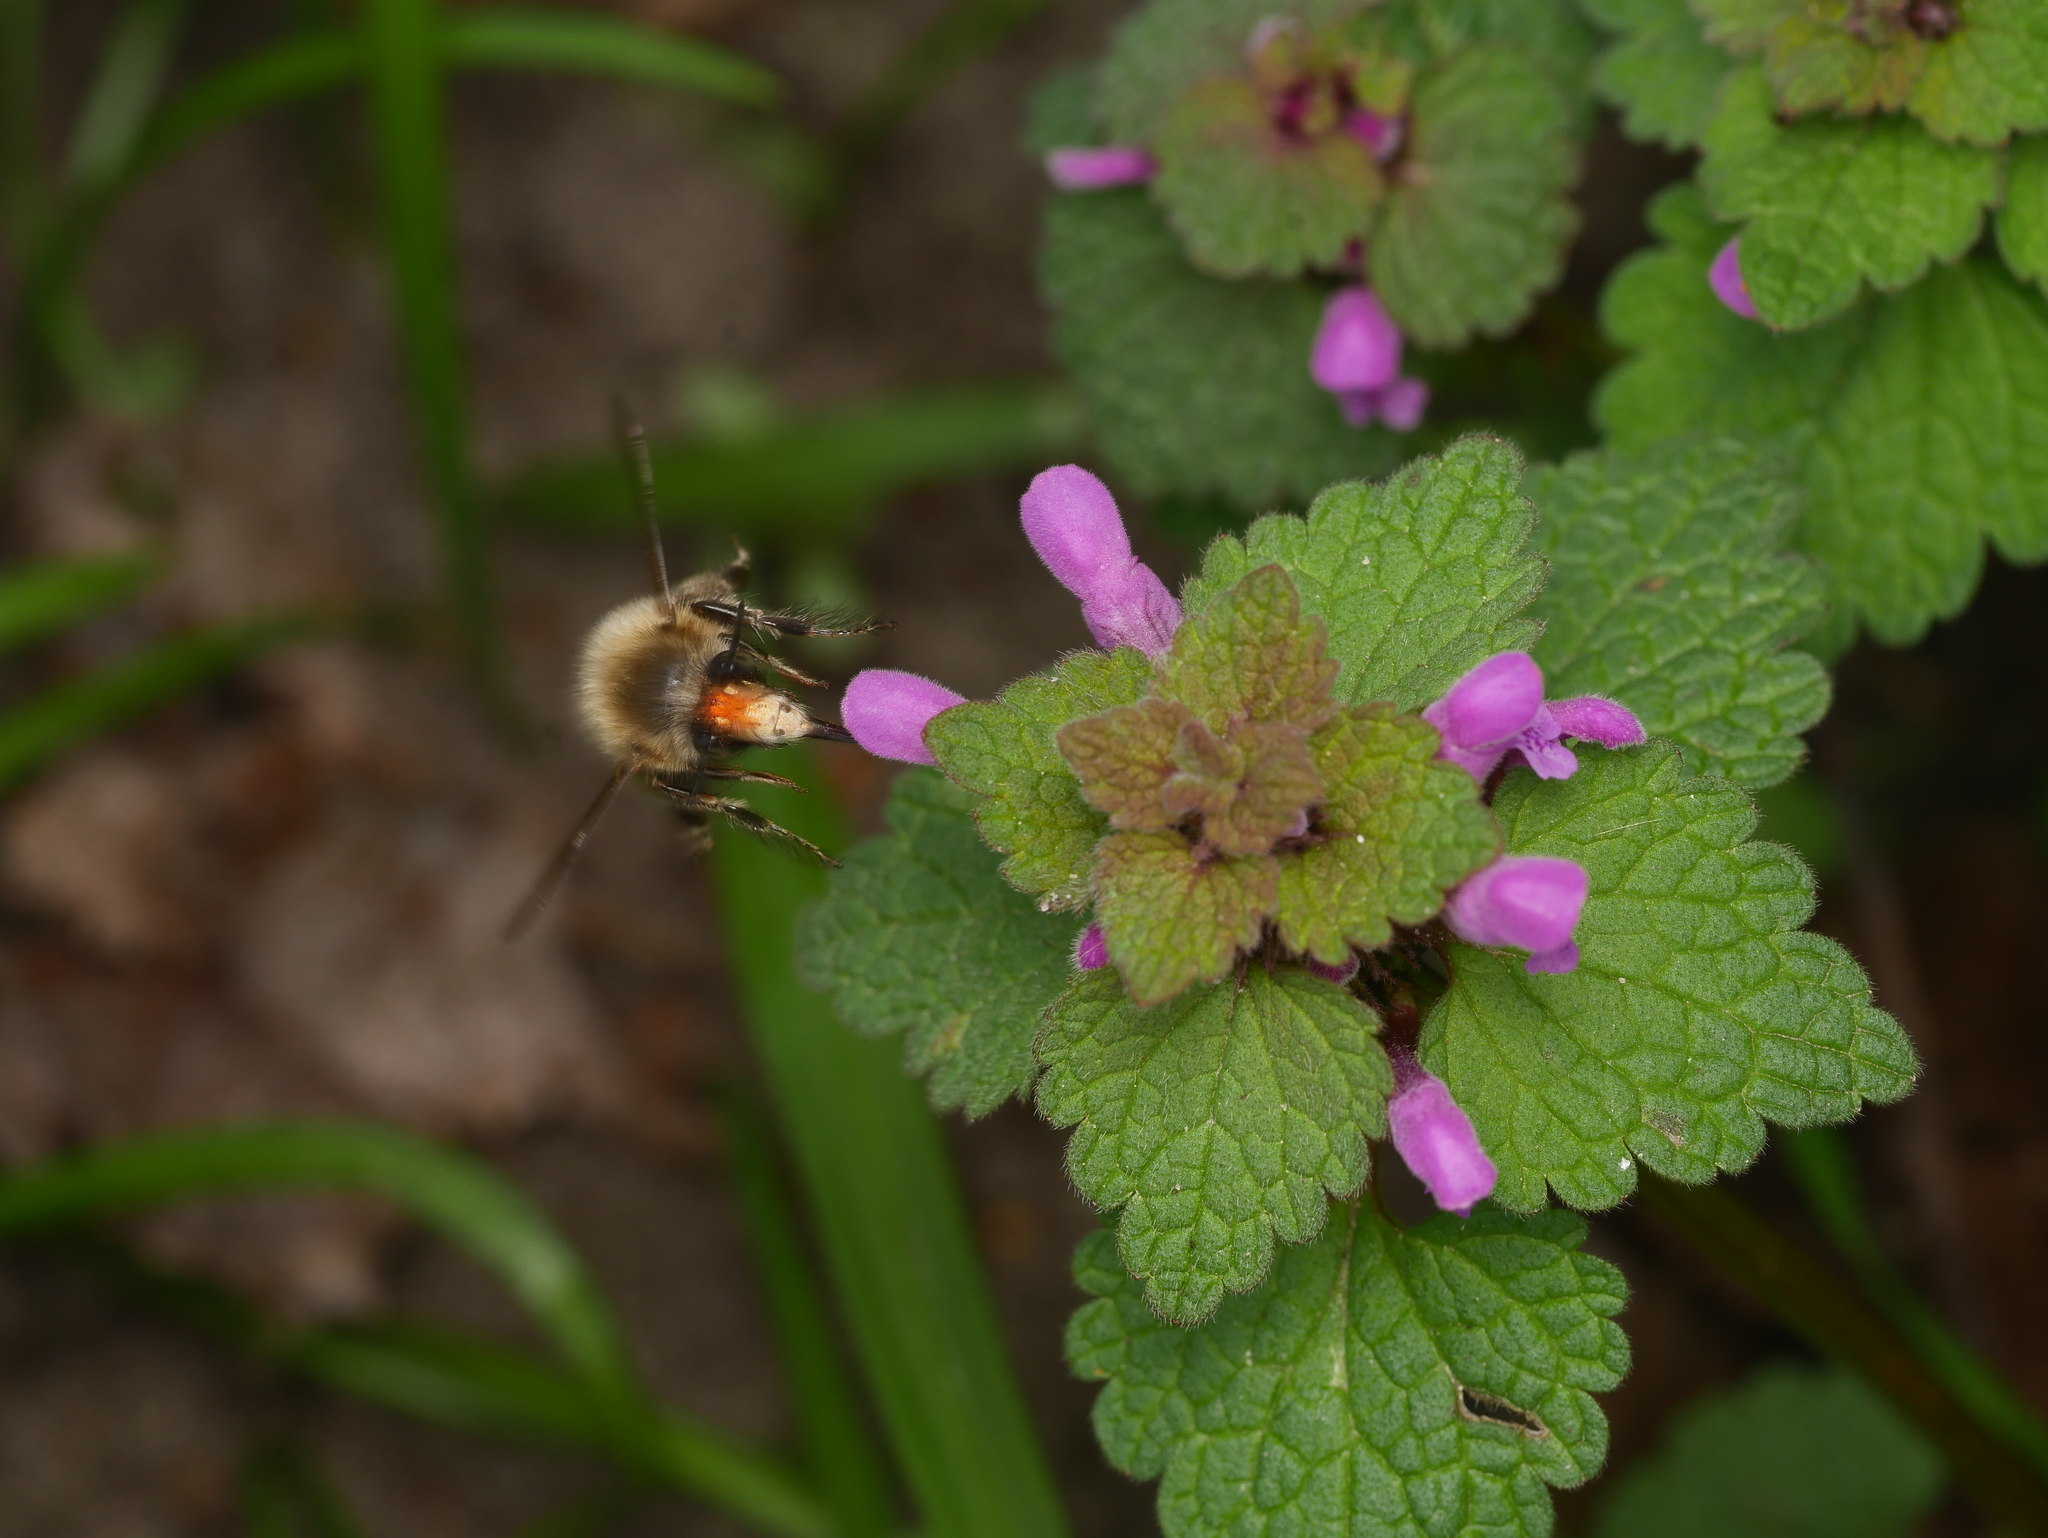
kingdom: Animalia
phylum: Arthropoda
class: Insecta
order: Hymenoptera
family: Apidae
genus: Anthophora
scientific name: Anthophora plumipes
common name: Hairy-footed flower bee
